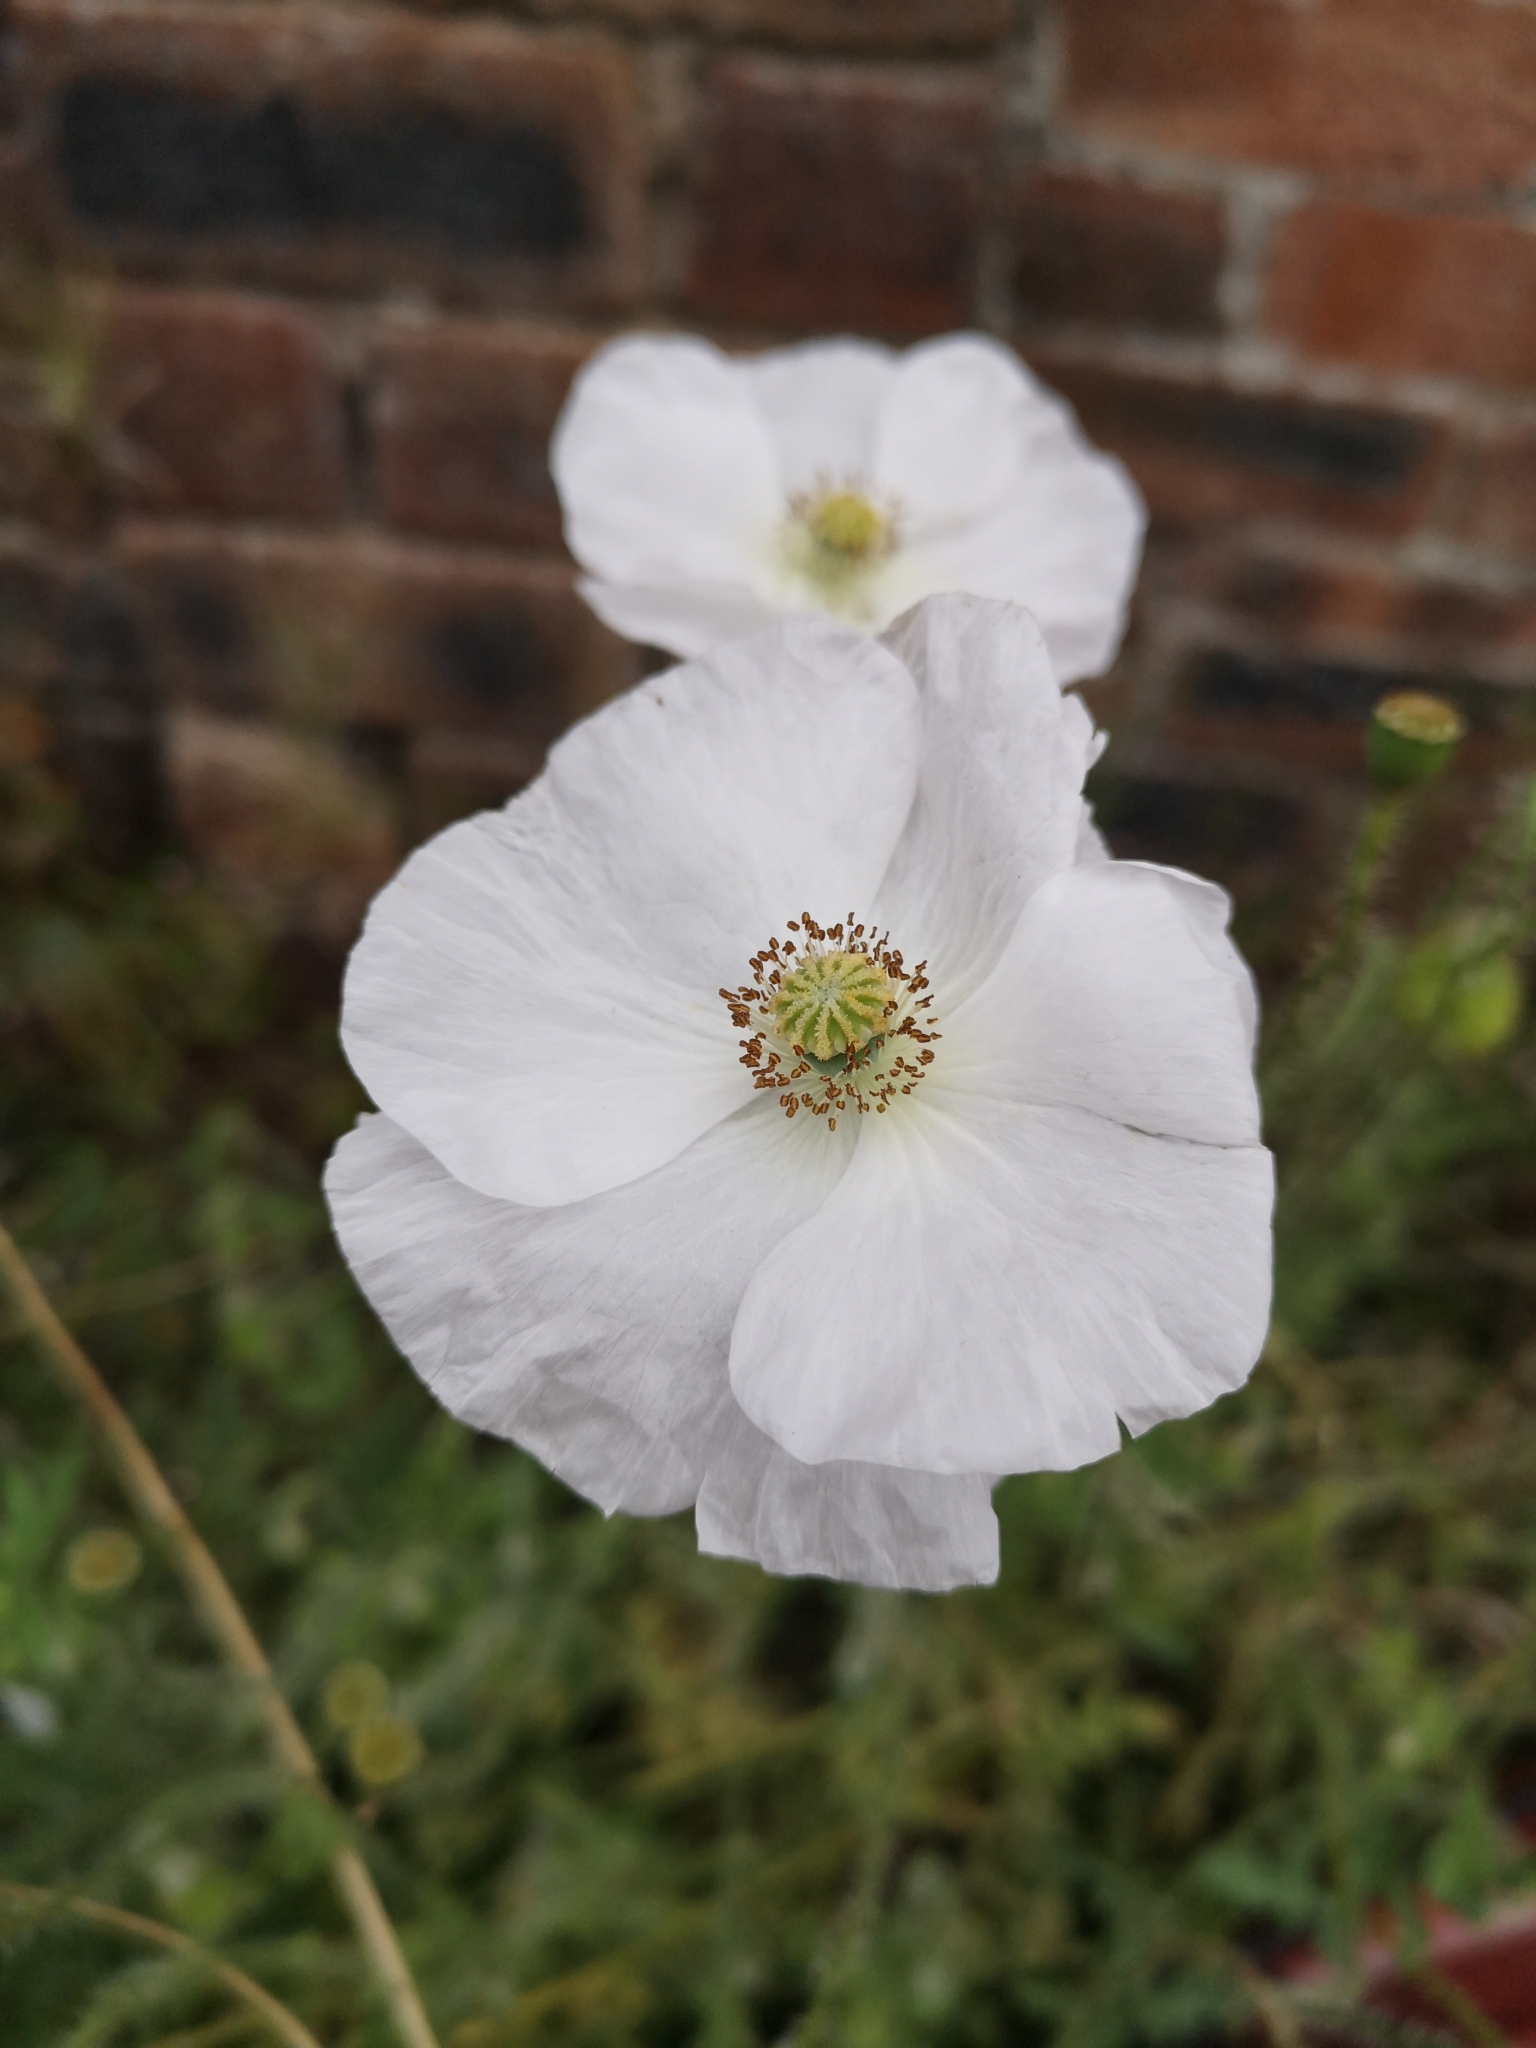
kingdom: Plantae
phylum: Tracheophyta
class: Magnoliopsida
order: Ranunculales
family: Papaveraceae
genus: Papaver
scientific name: Papaver rhoeas
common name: Corn poppy
